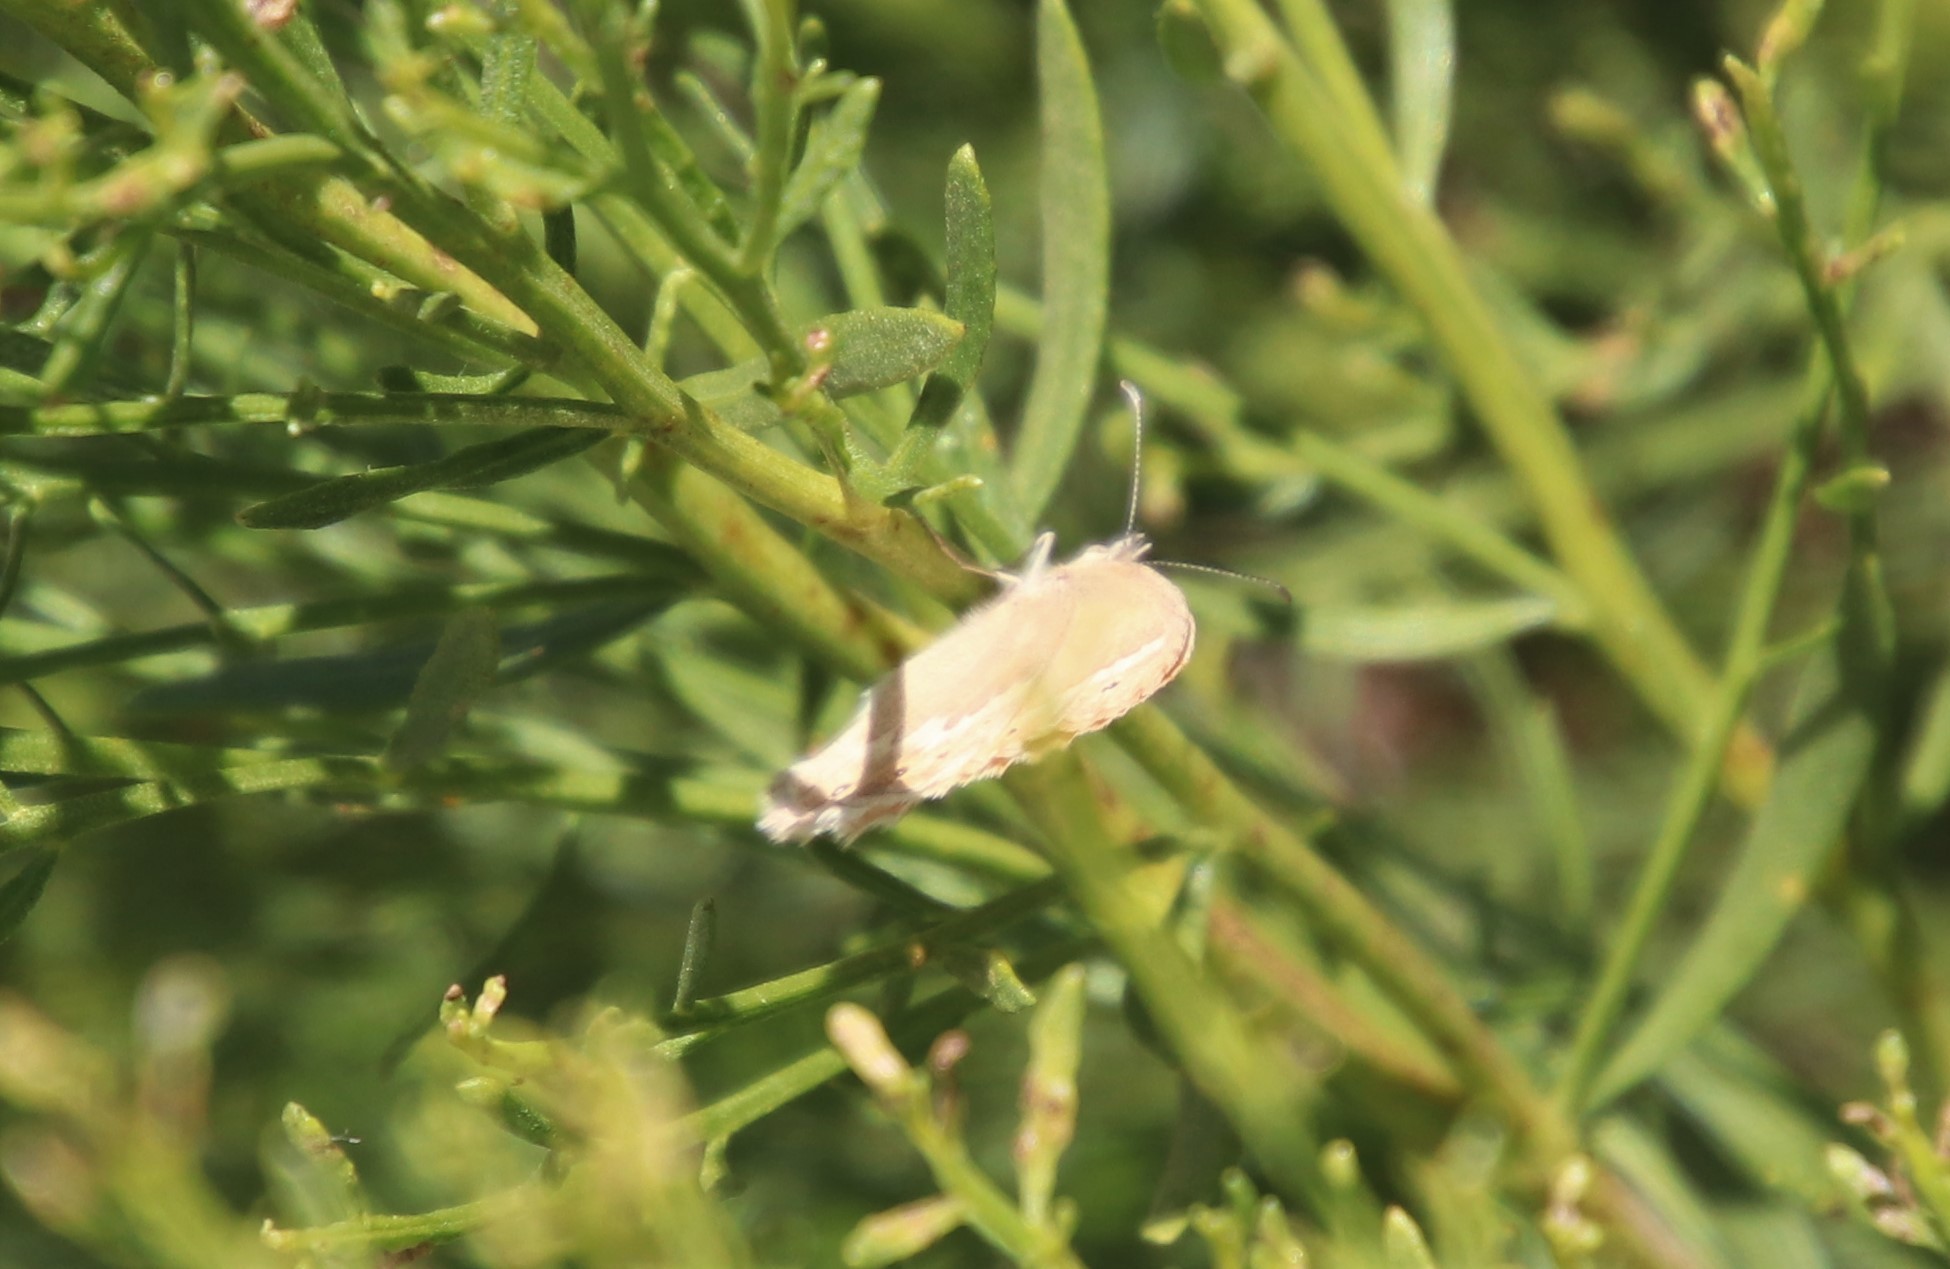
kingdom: Animalia
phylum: Arthropoda
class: Insecta
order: Lepidoptera
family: Nymphalidae
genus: Coenonympha
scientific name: Coenonympha california
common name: Common ringlet
